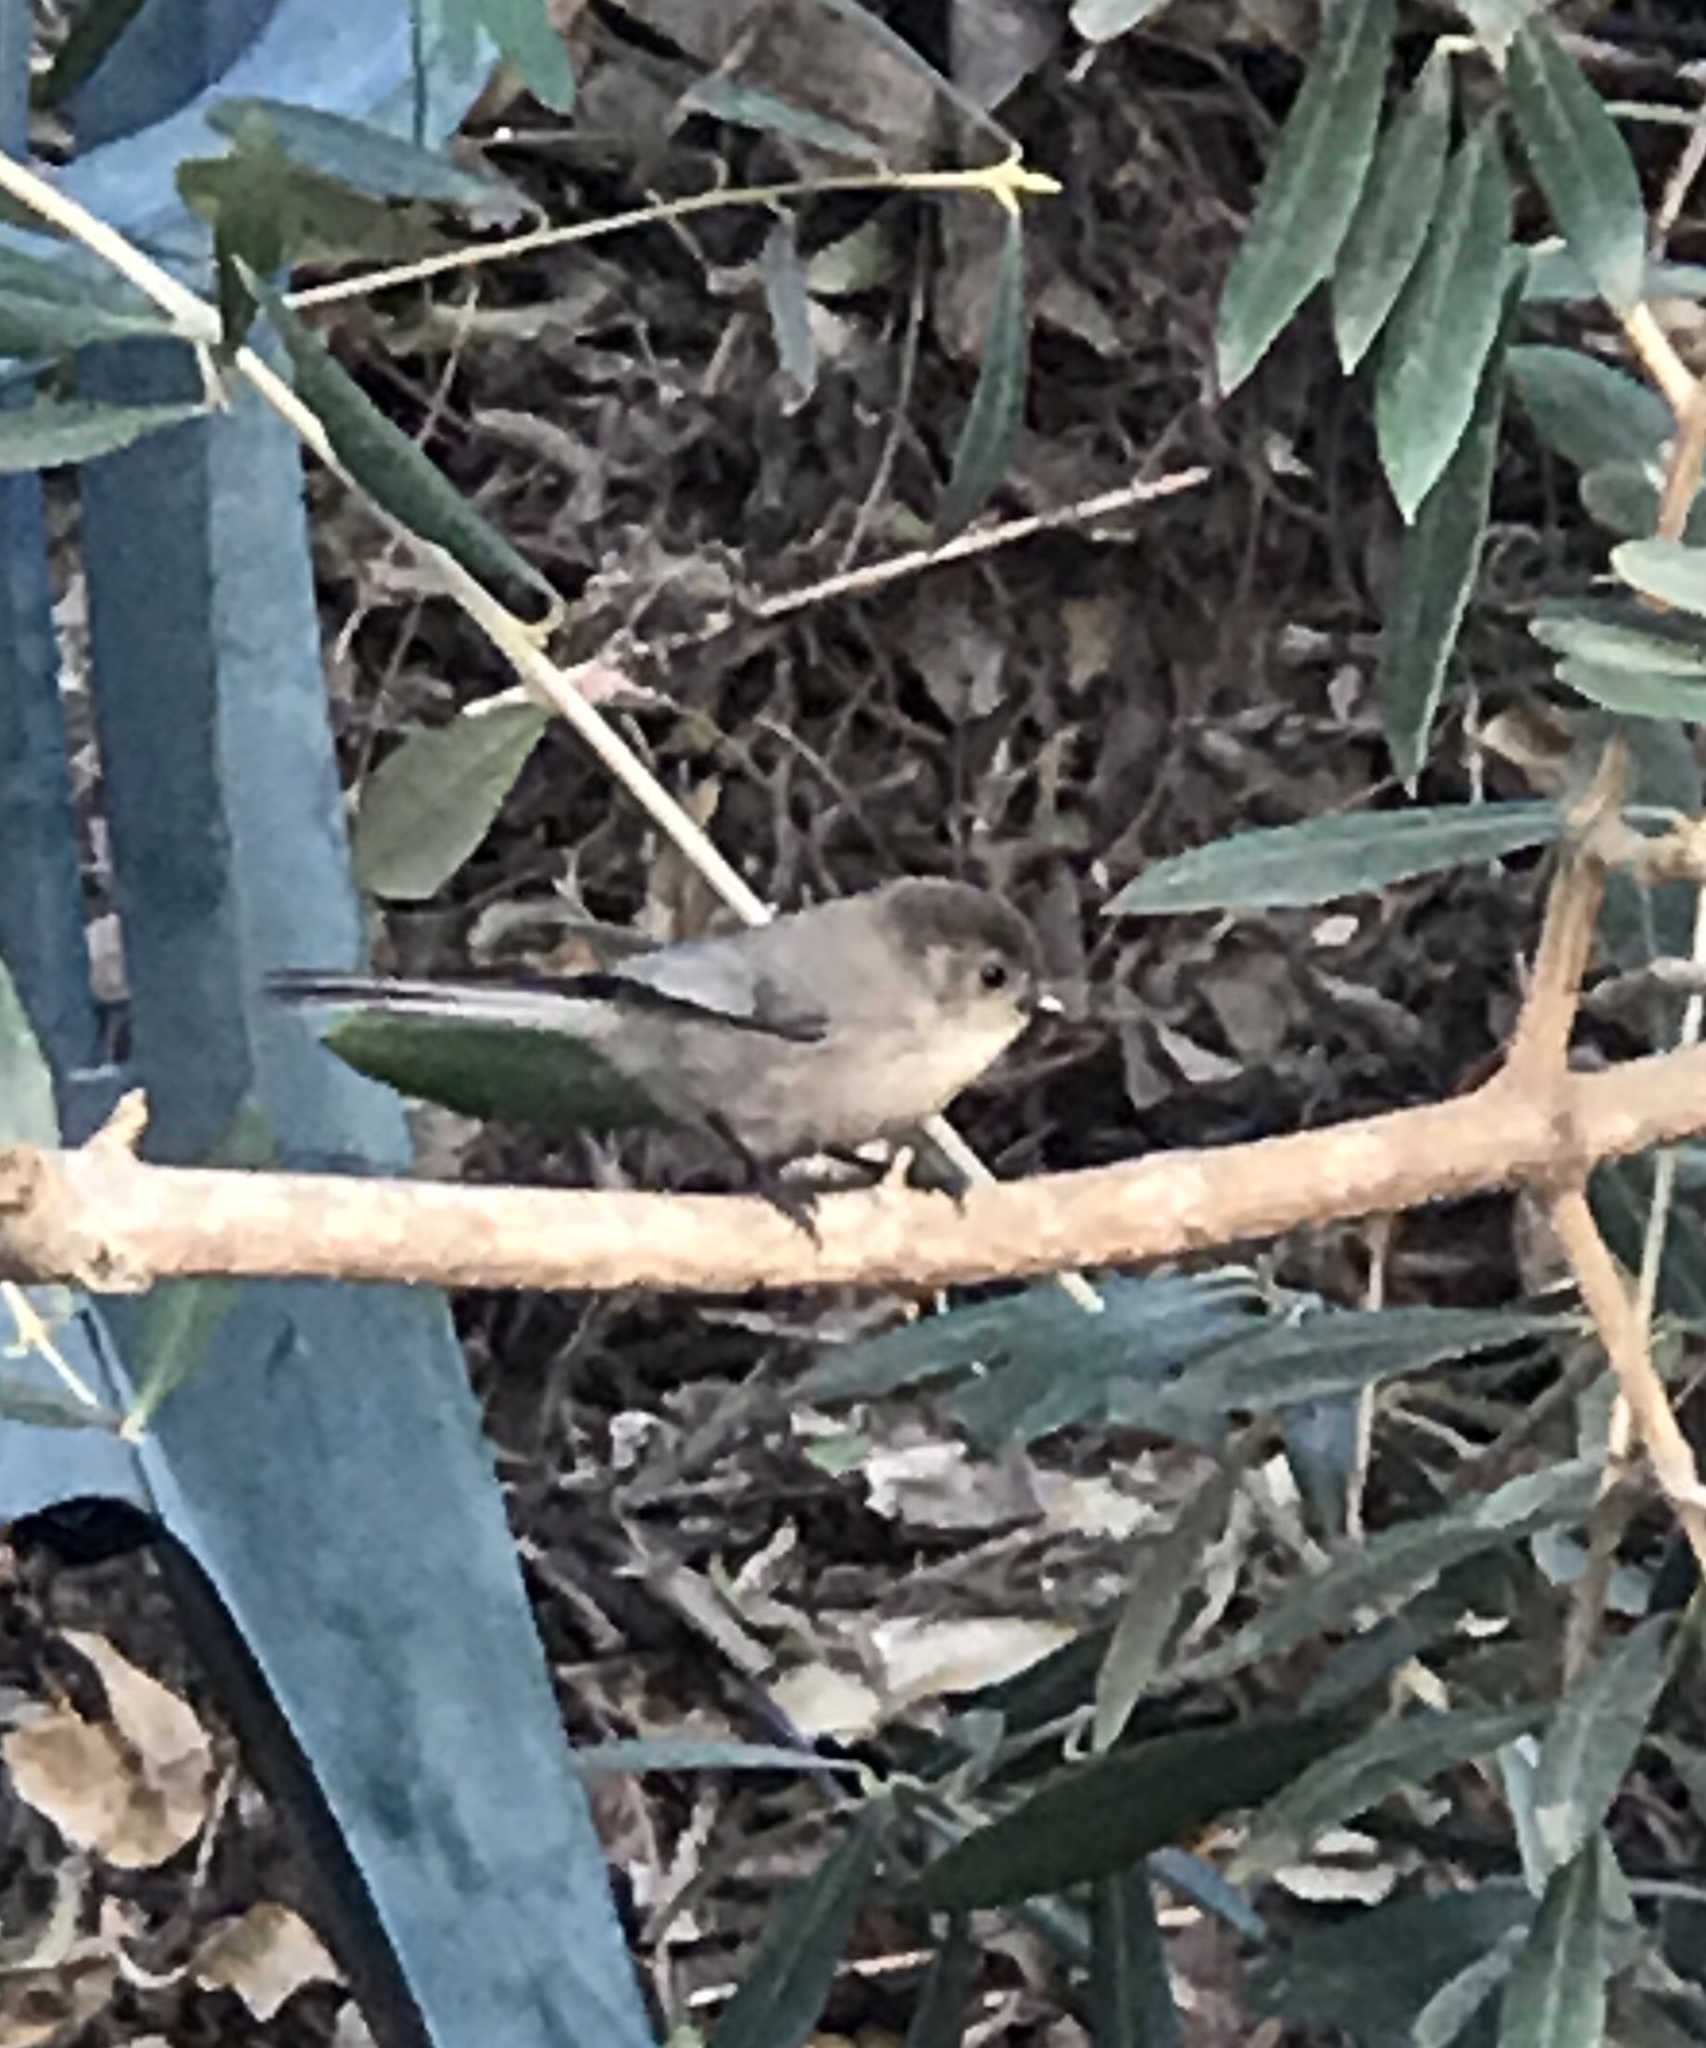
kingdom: Animalia
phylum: Chordata
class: Aves
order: Passeriformes
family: Aegithalidae
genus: Psaltriparus
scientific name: Psaltriparus minimus
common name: American bushtit
